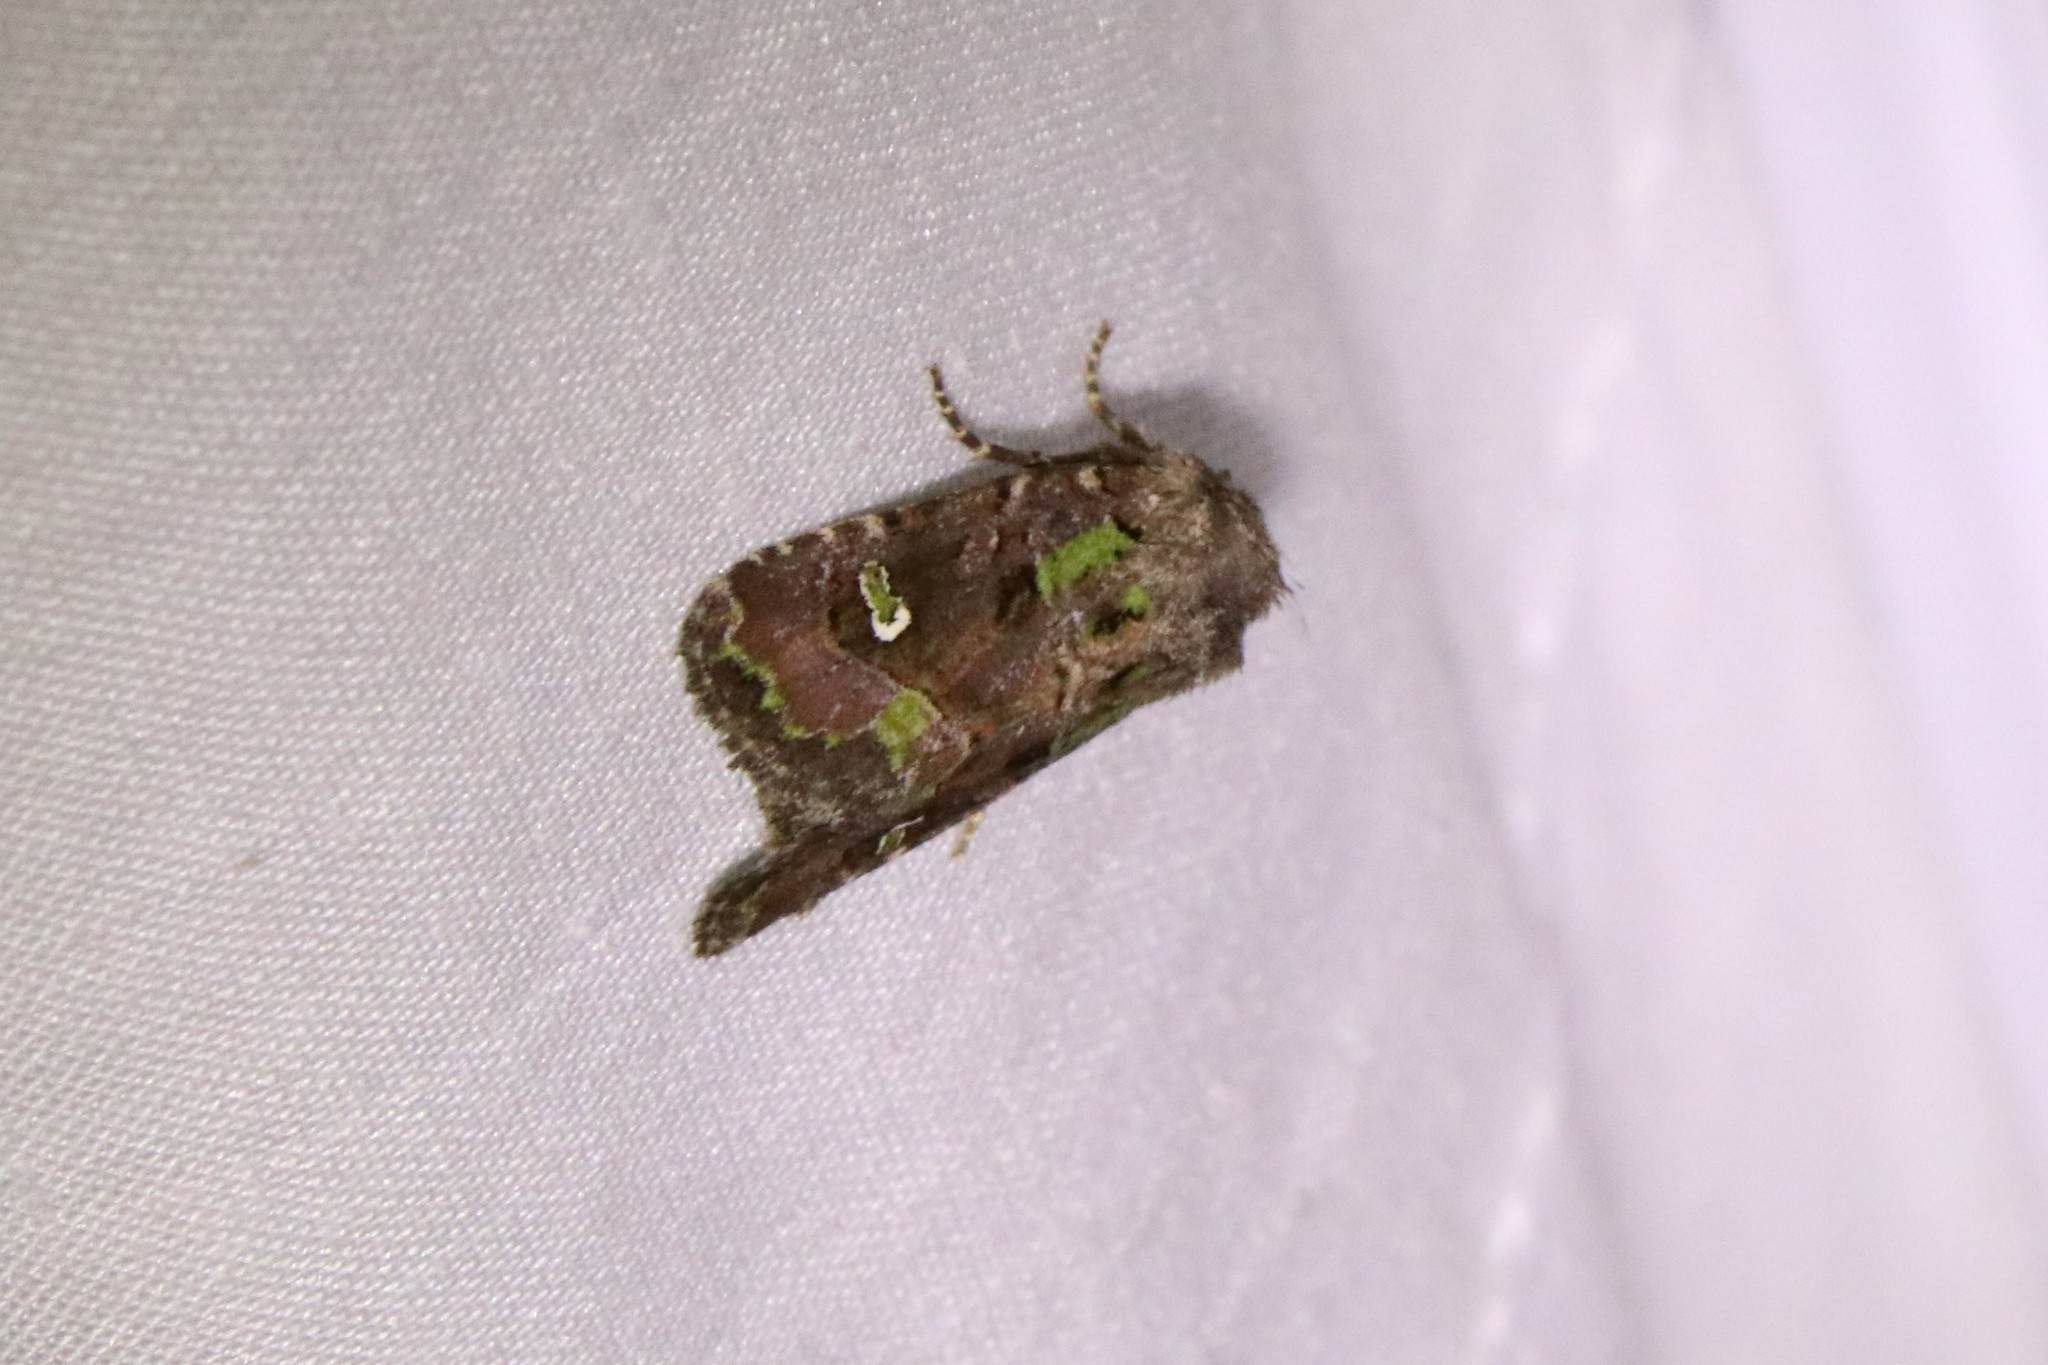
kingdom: Animalia
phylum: Arthropoda
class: Insecta
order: Lepidoptera
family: Noctuidae
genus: Lacinipolia
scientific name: Lacinipolia renigera
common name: Kidney-spotted minor
